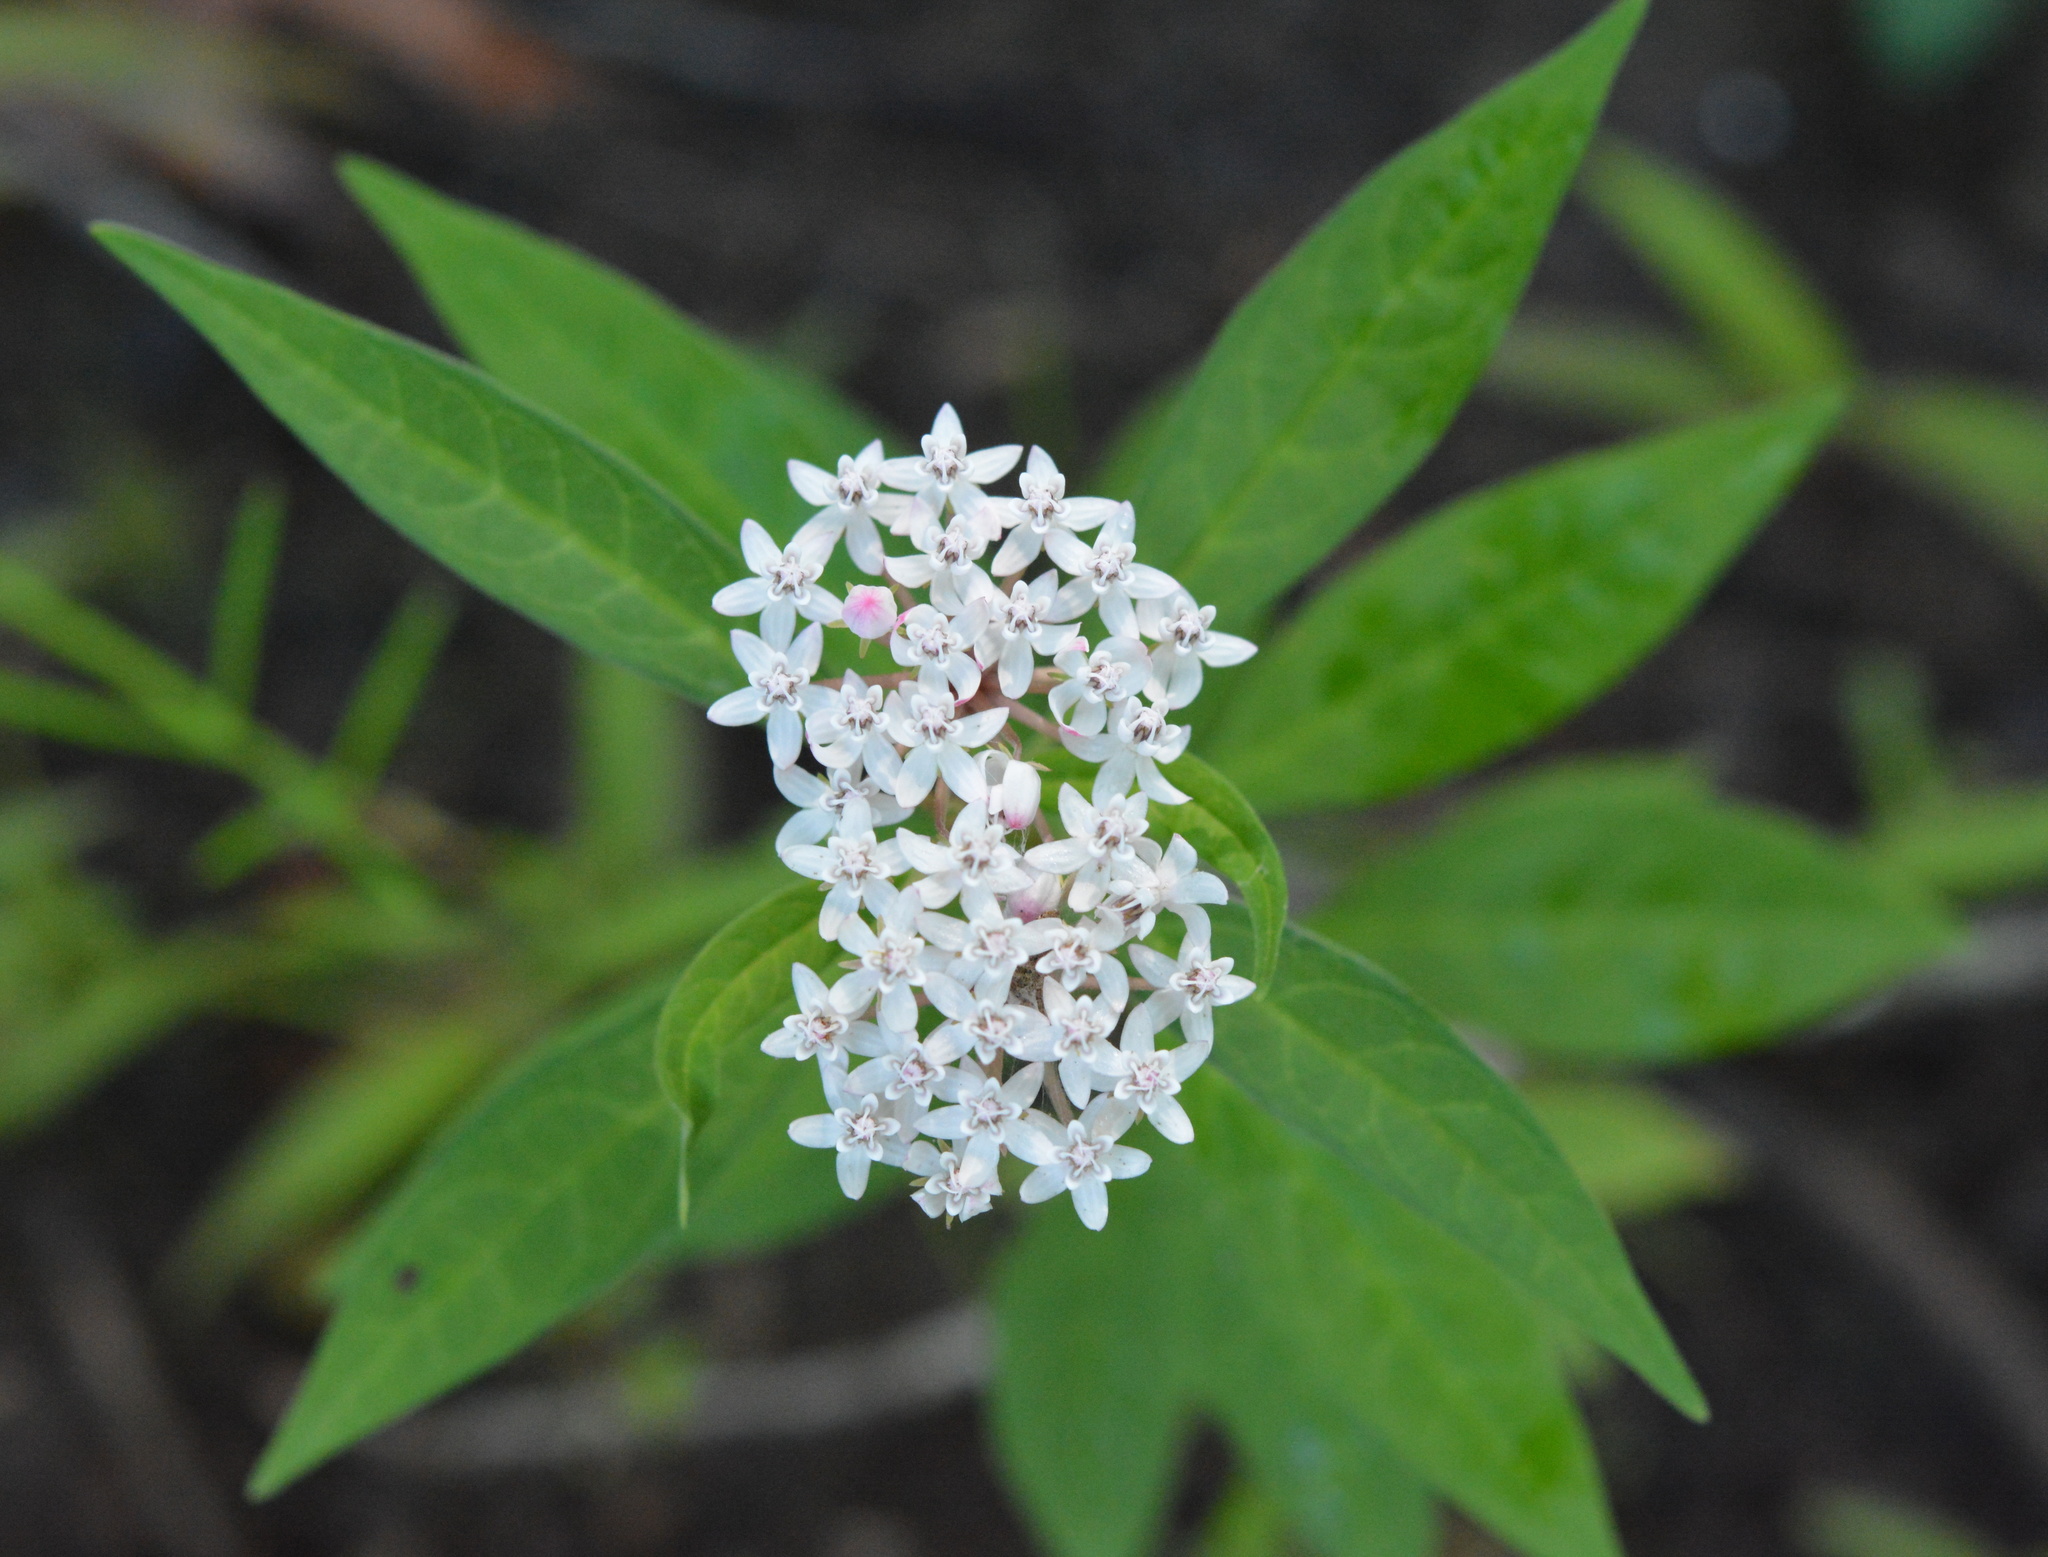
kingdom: Plantae
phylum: Tracheophyta
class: Magnoliopsida
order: Gentianales
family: Apocynaceae
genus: Asclepias
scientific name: Asclepias perennis
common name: Smooth-seed milkweed
